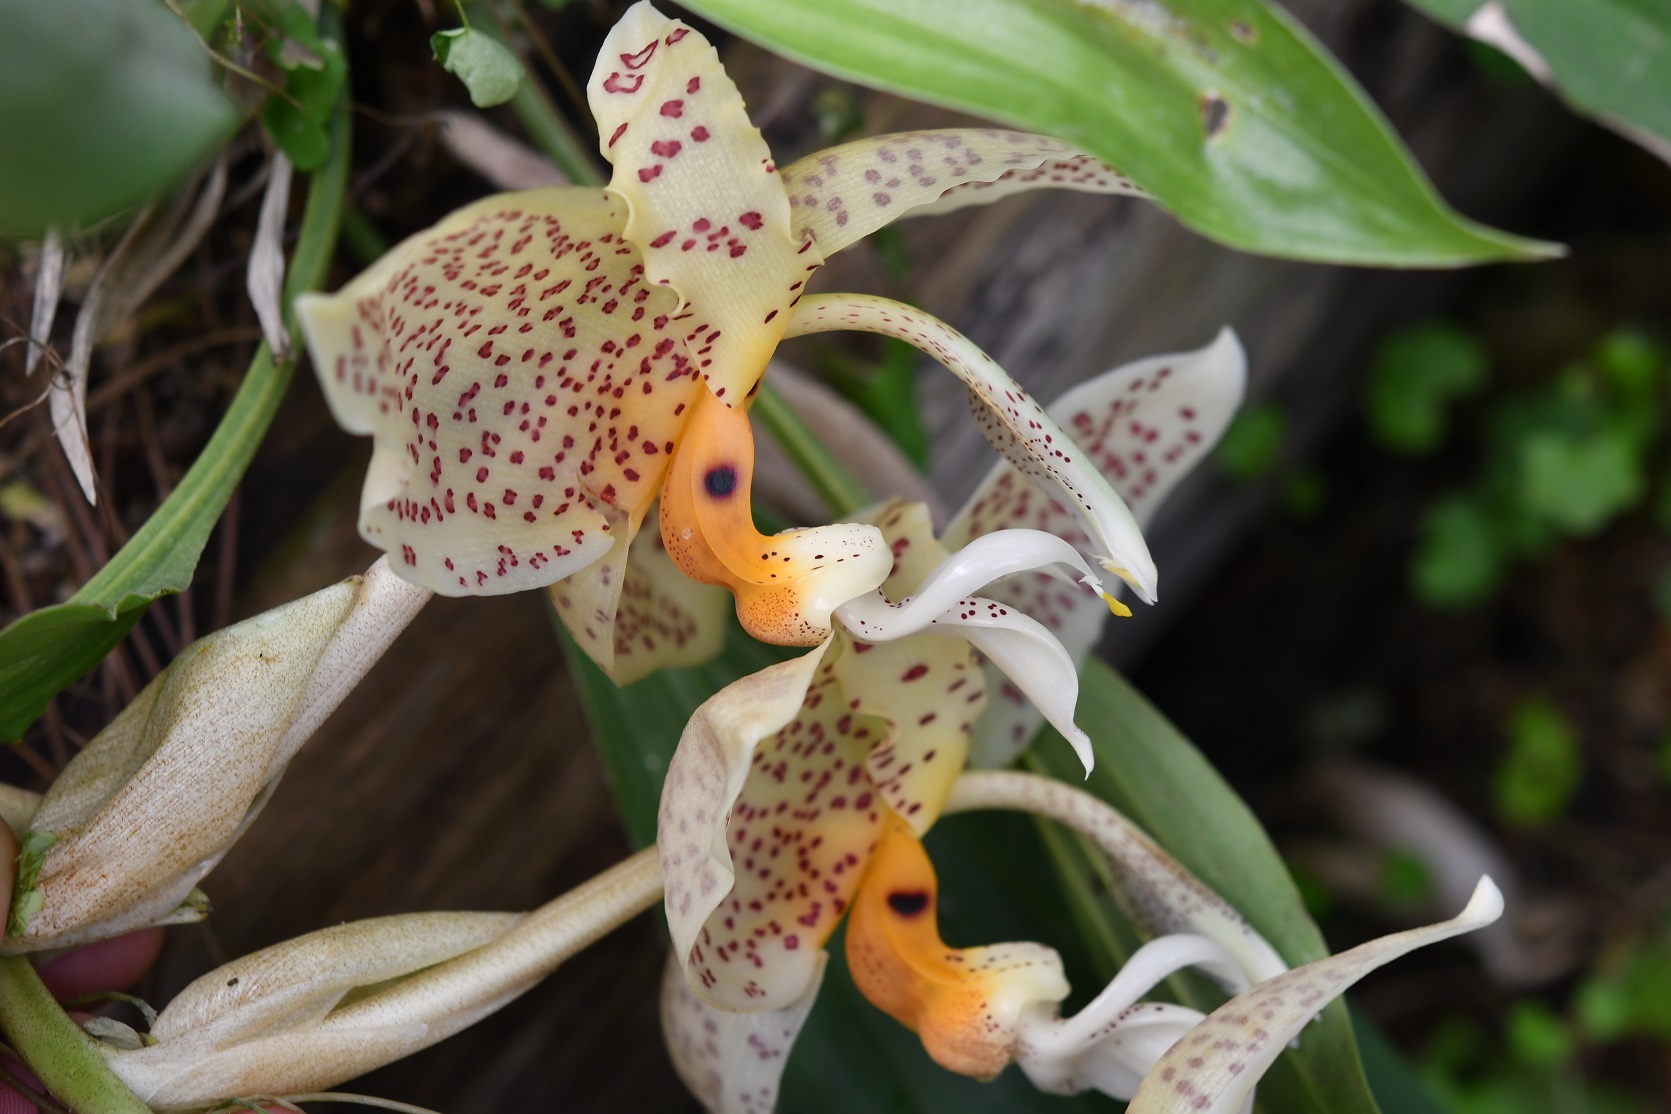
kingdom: Plantae
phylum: Tracheophyta
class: Liliopsida
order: Asparagales
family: Orchidaceae
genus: Stanhopea
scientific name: Stanhopea oculata
